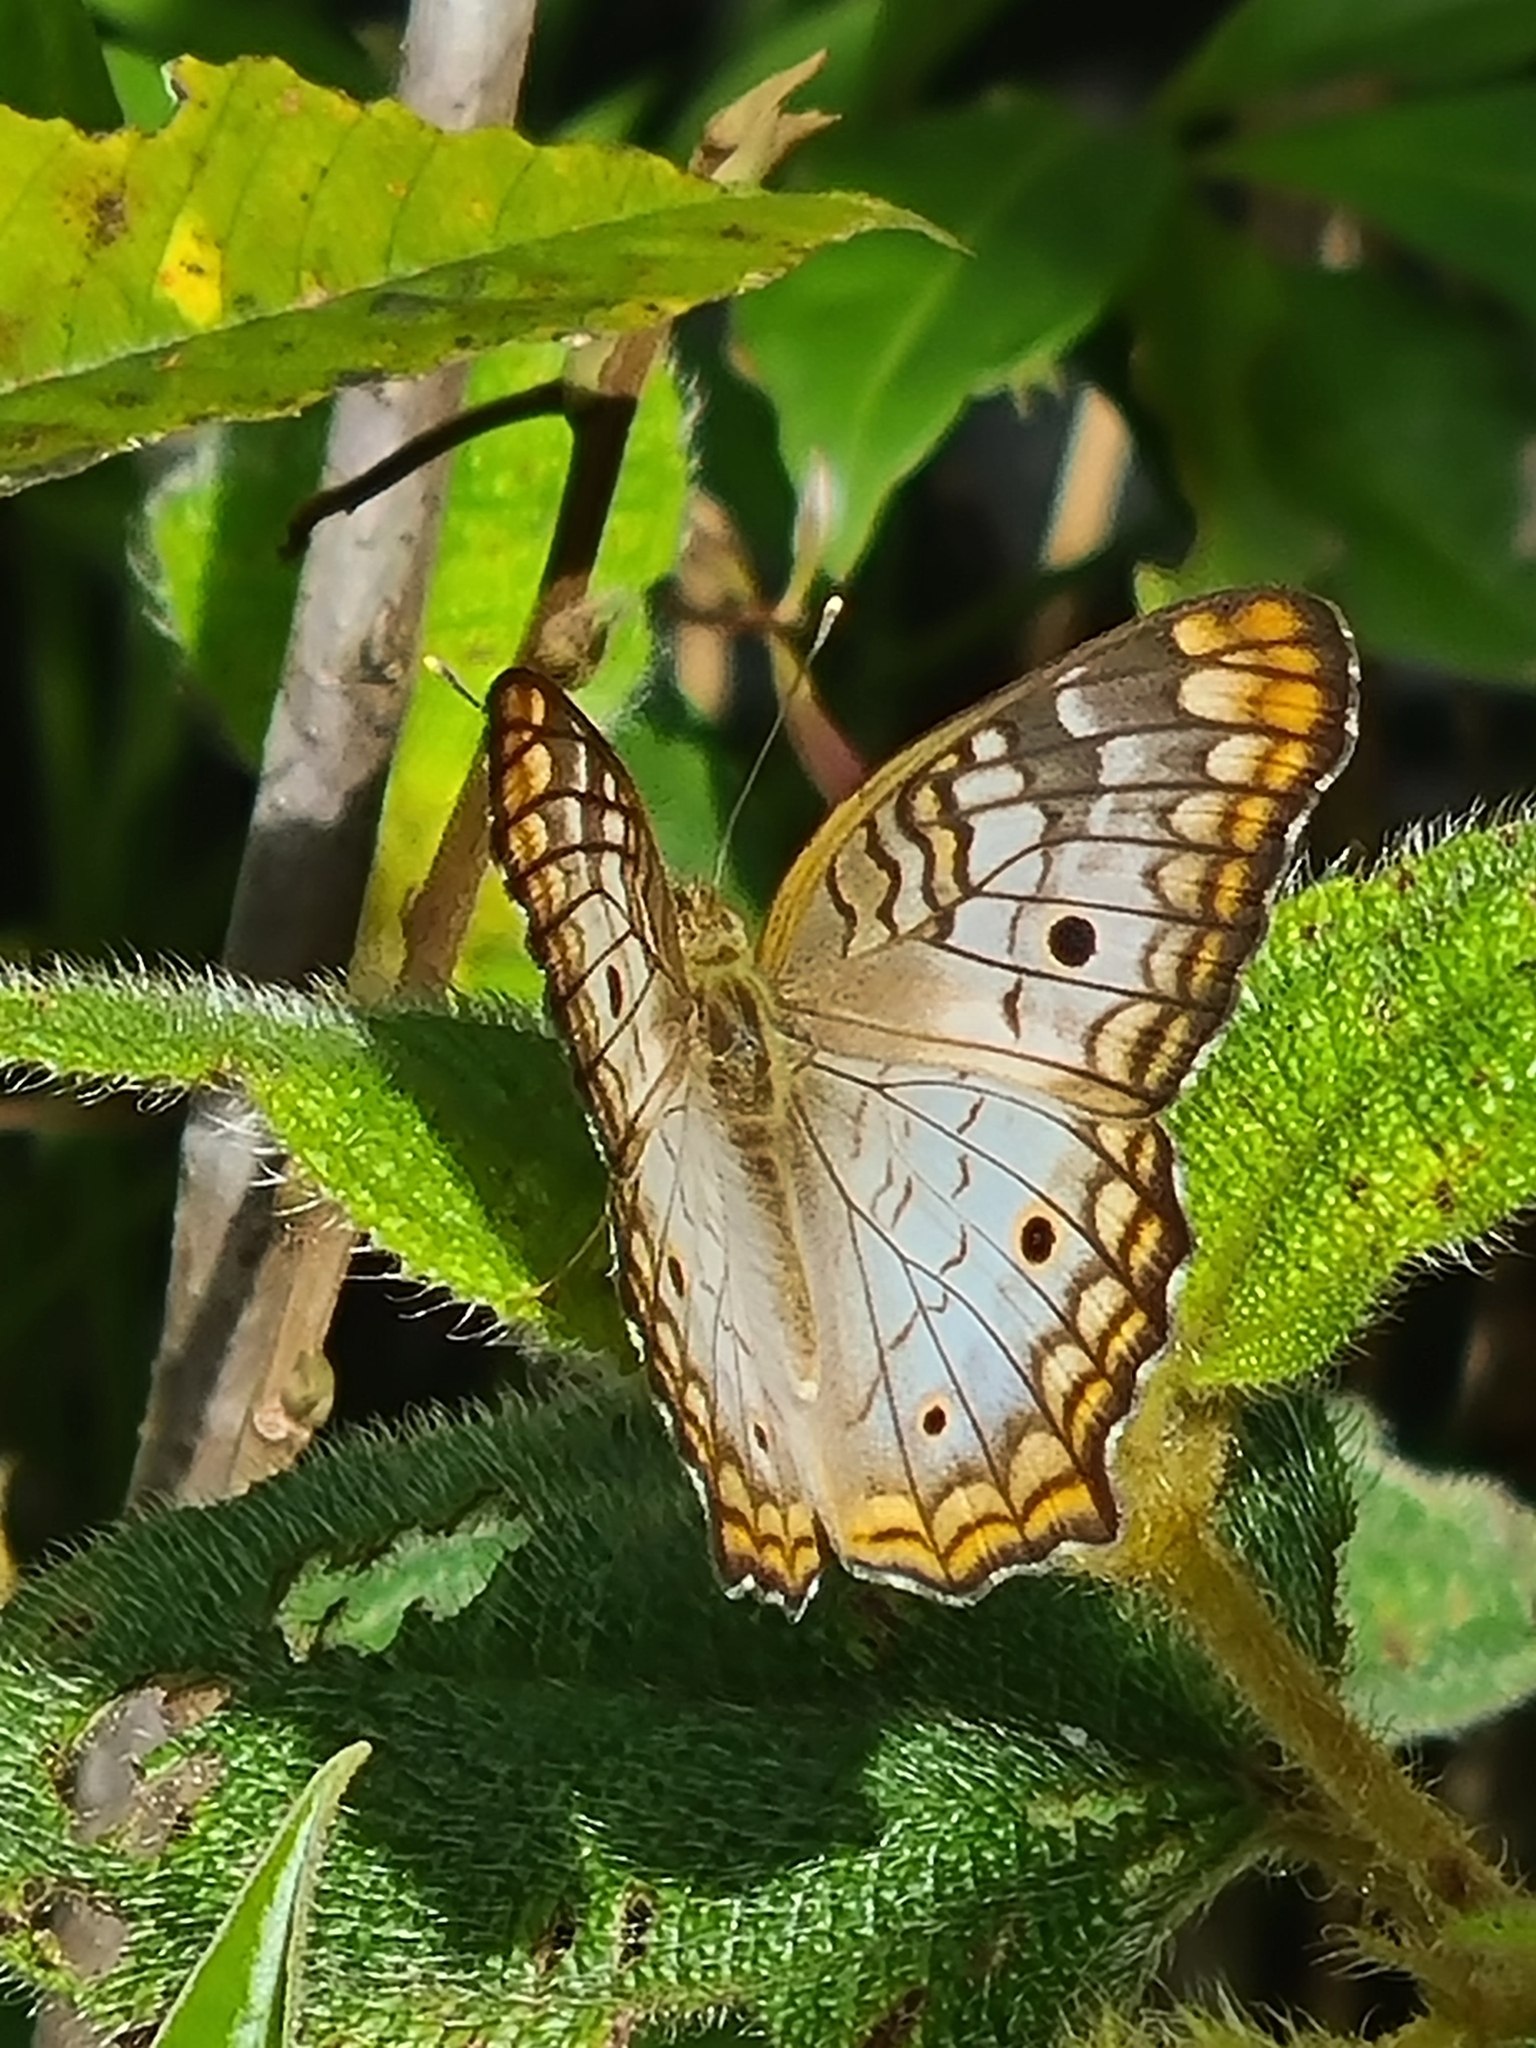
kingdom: Animalia
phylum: Arthropoda
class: Insecta
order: Lepidoptera
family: Nymphalidae
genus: Anartia
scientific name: Anartia jatrophae
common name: White peacock
